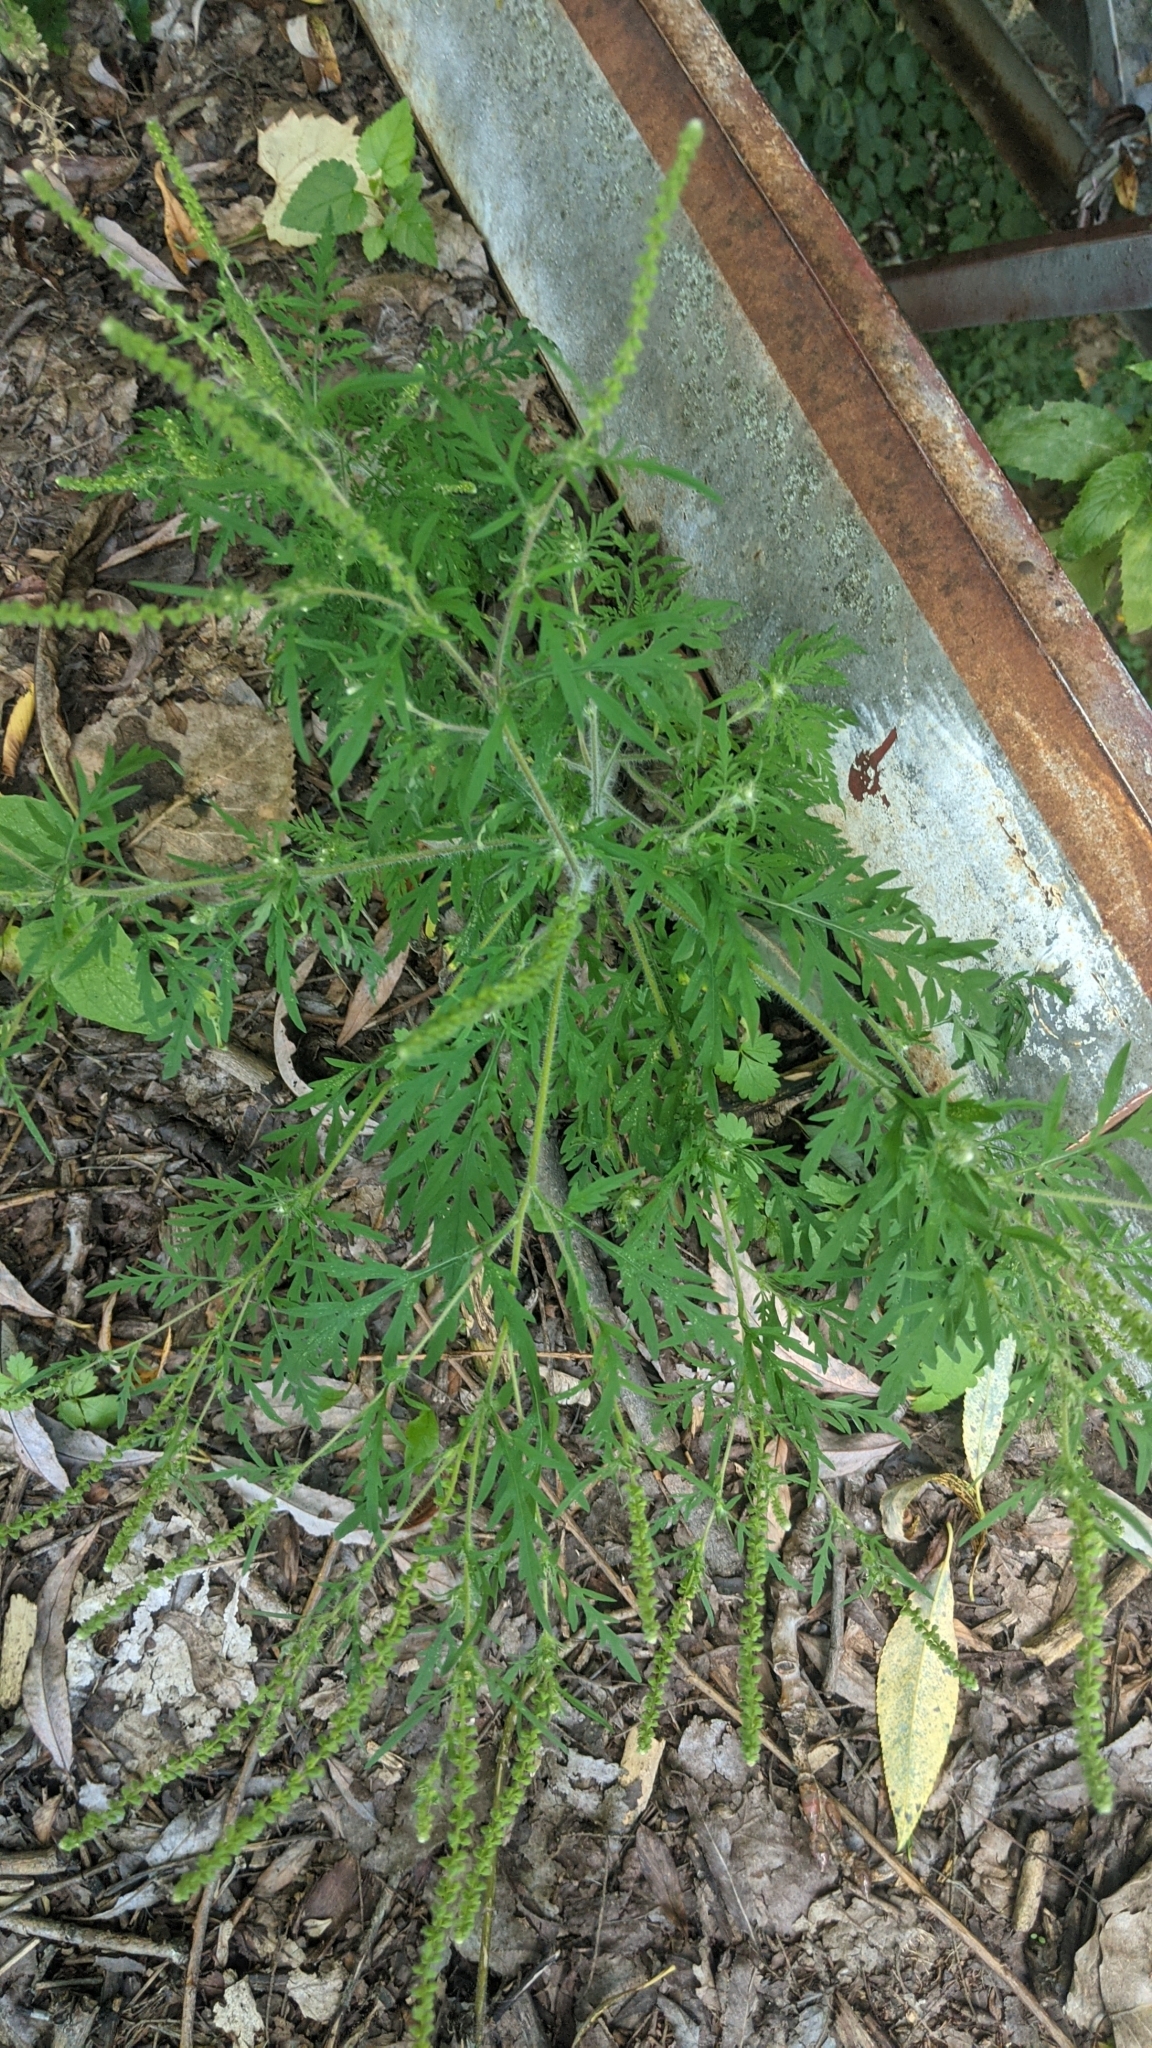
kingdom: Plantae
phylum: Tracheophyta
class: Magnoliopsida
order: Asterales
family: Asteraceae
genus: Ambrosia
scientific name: Ambrosia artemisiifolia
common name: Annual ragweed
